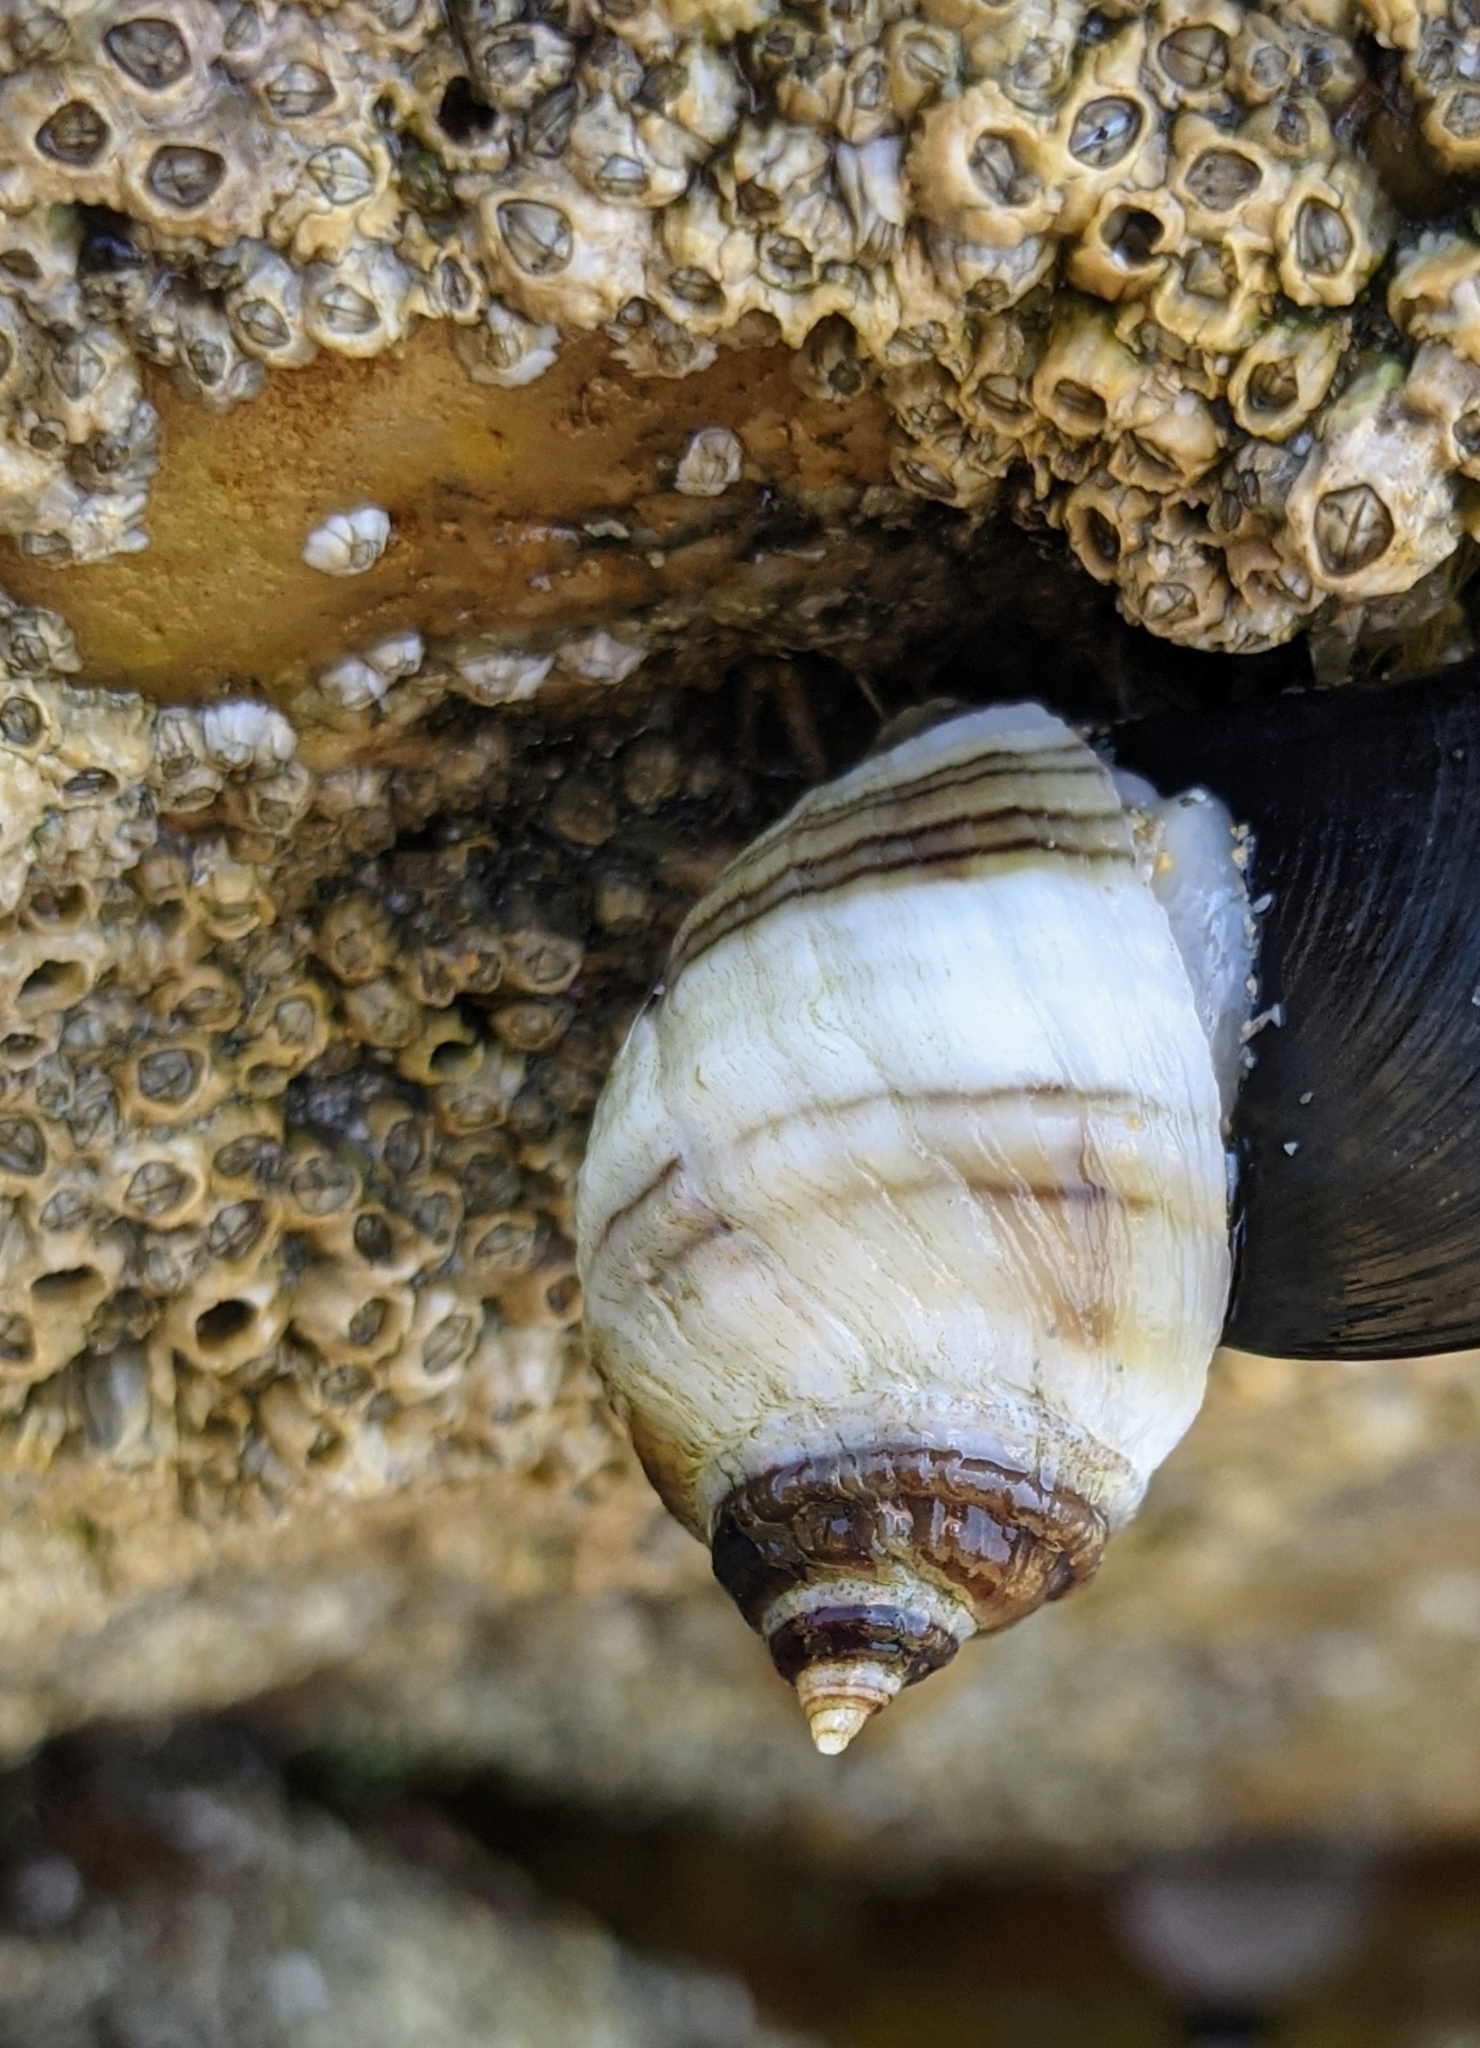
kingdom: Animalia
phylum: Mollusca
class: Gastropoda
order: Neogastropoda
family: Muricidae
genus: Nucella
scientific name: Nucella lapillus
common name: Dog whelk
